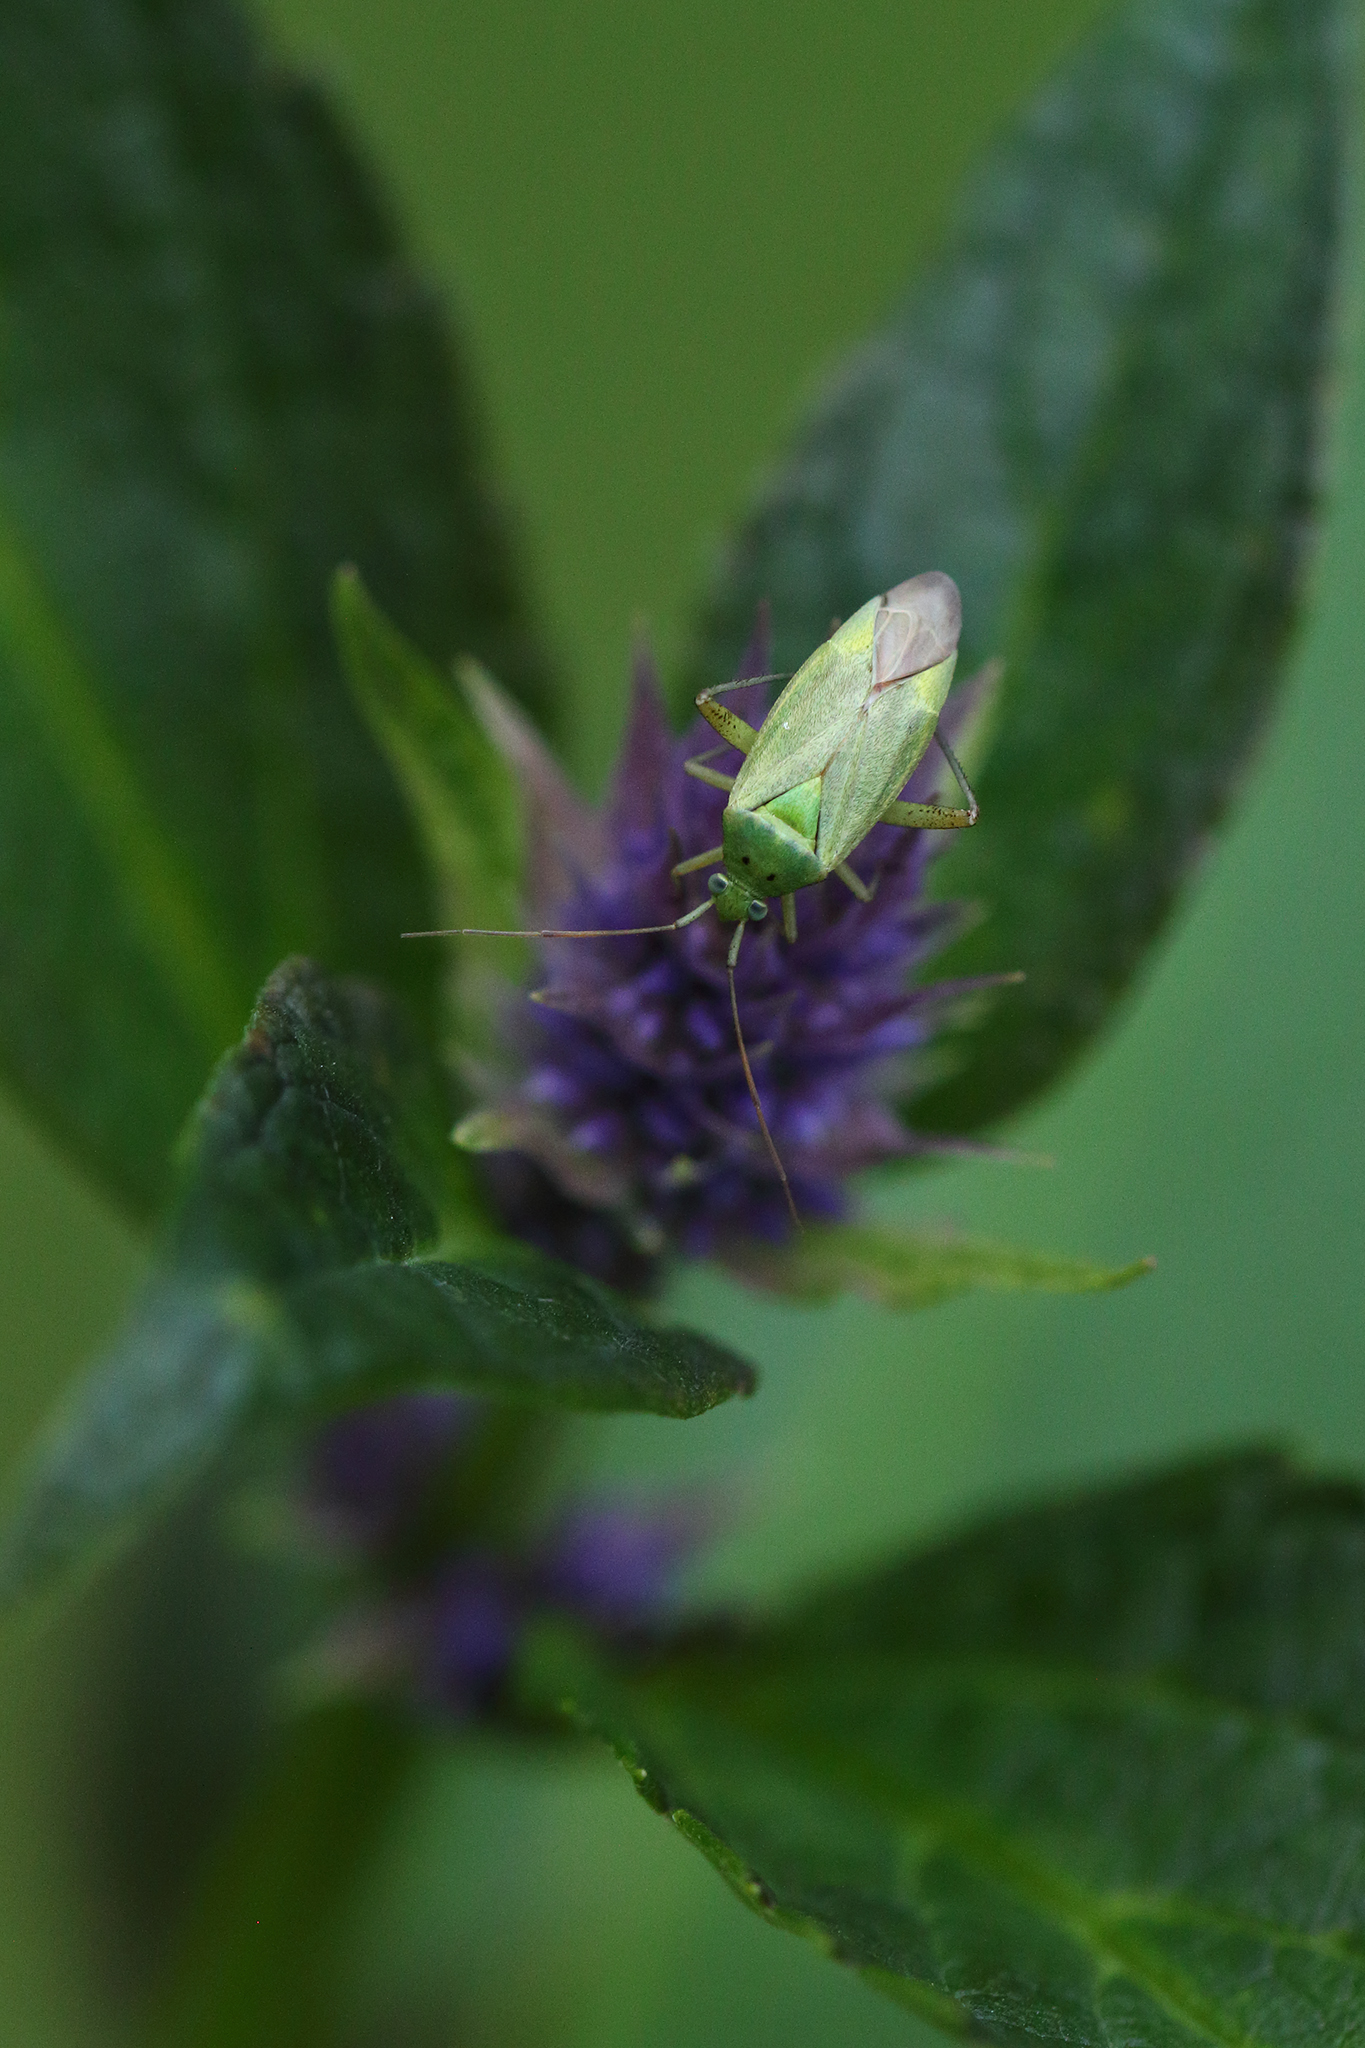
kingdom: Animalia
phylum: Arthropoda
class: Insecta
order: Hemiptera
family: Miridae
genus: Closterotomus
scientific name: Closterotomus norvegicus
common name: Plant bug
